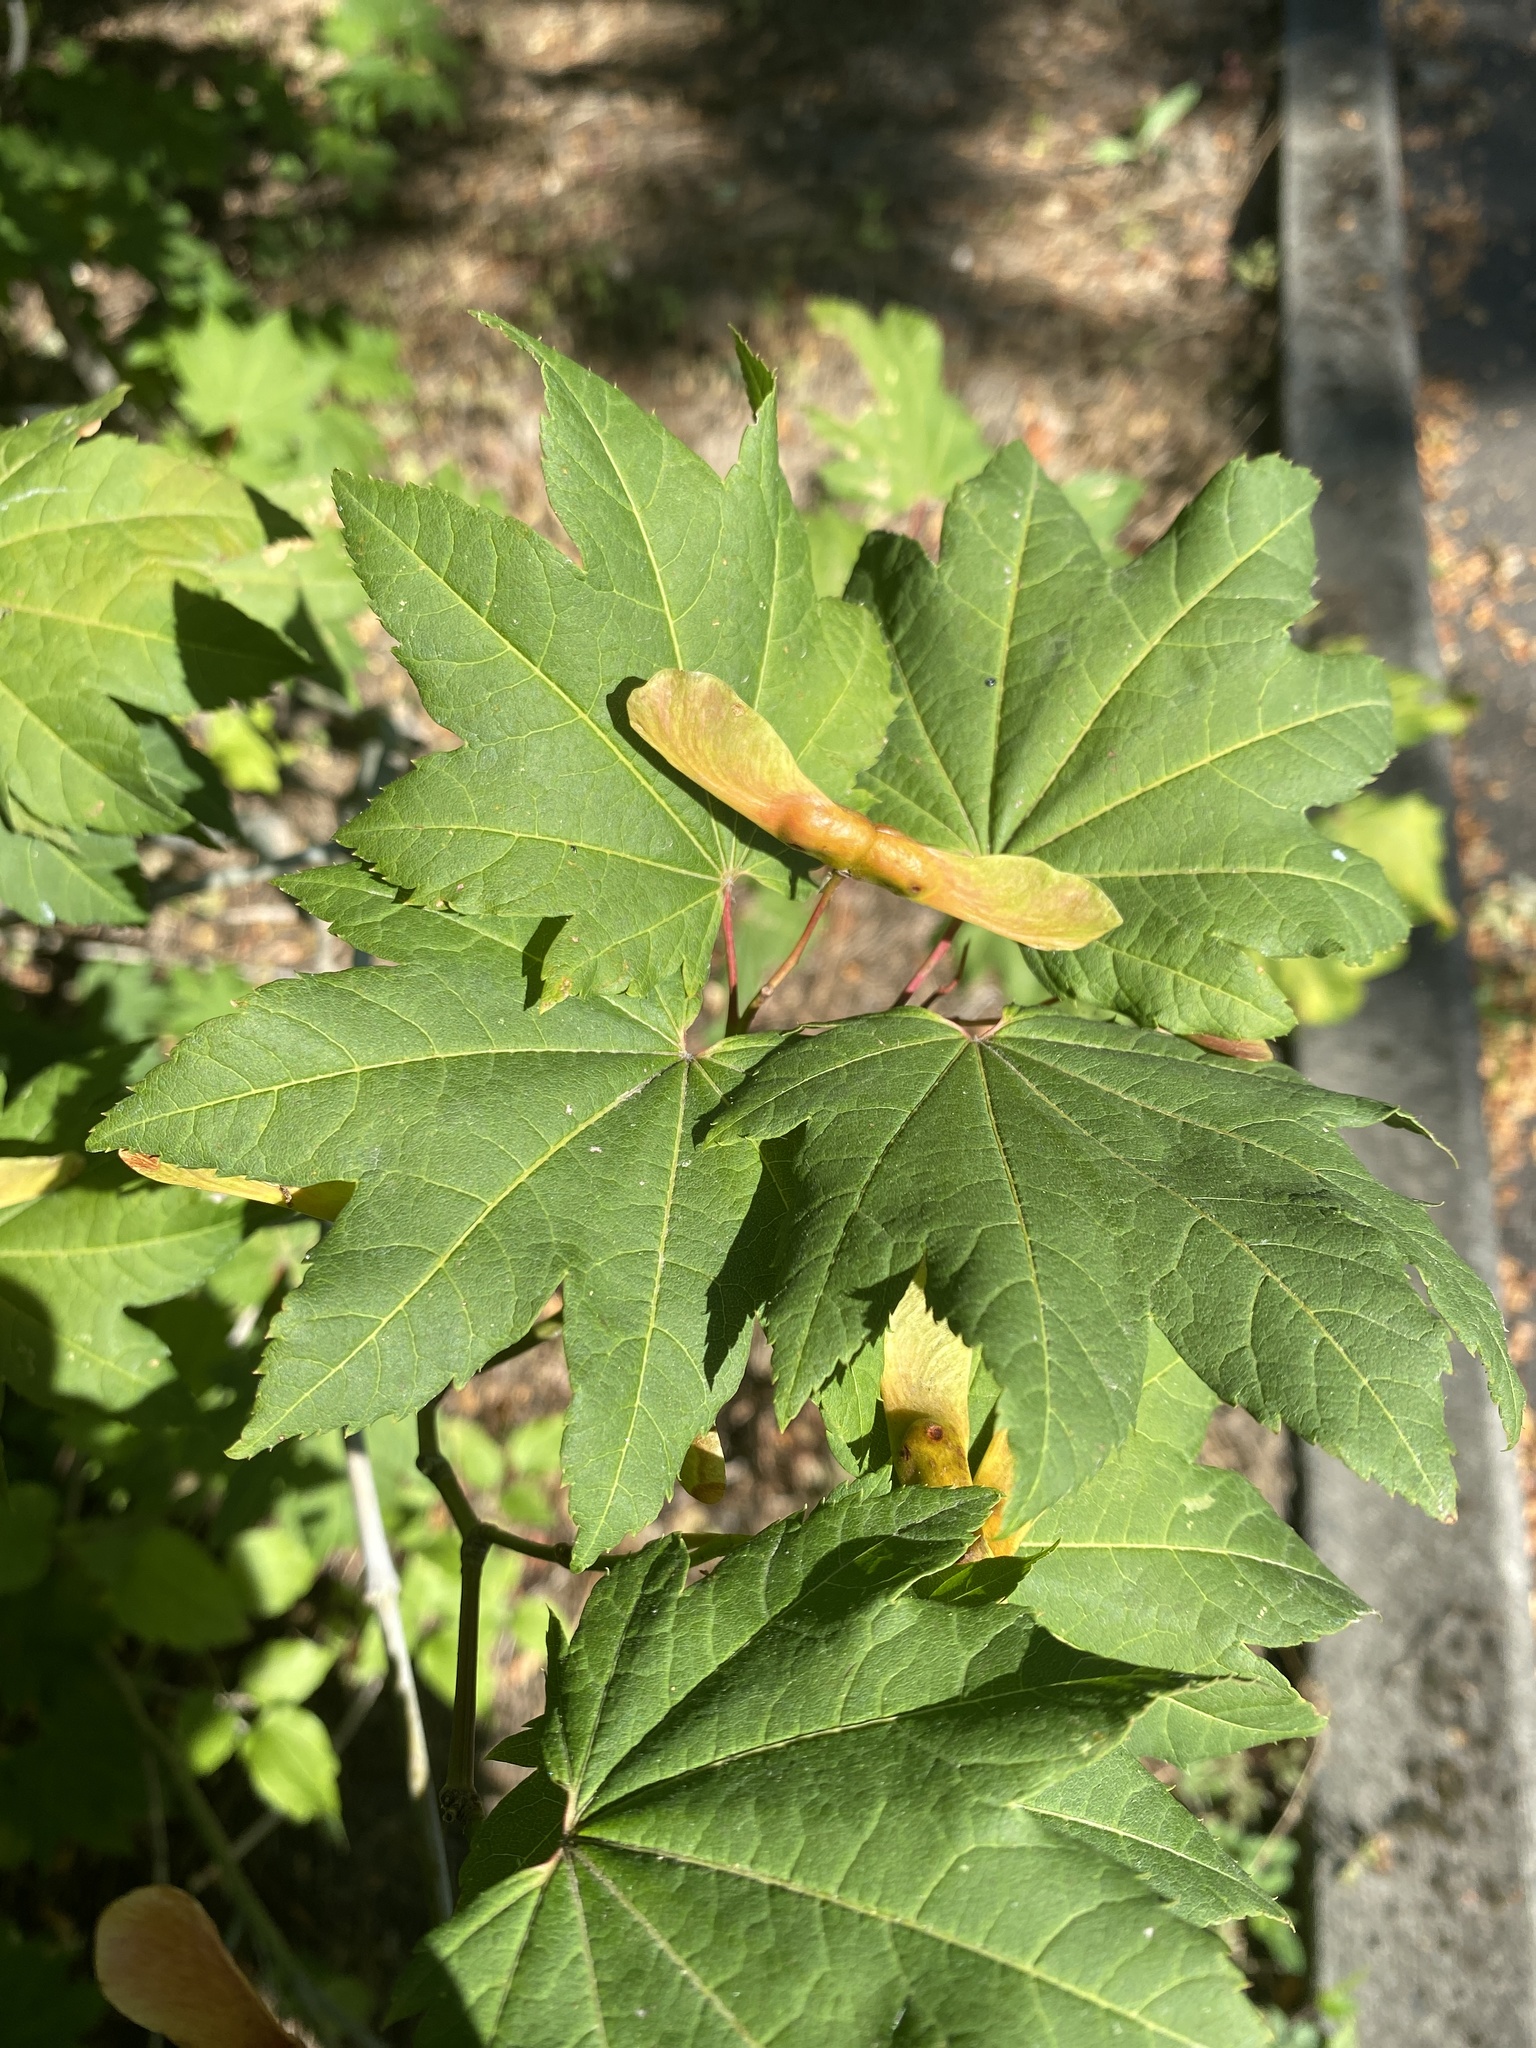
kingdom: Plantae
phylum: Tracheophyta
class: Magnoliopsida
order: Sapindales
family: Sapindaceae
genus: Acer
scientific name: Acer circinatum
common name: Vine maple
